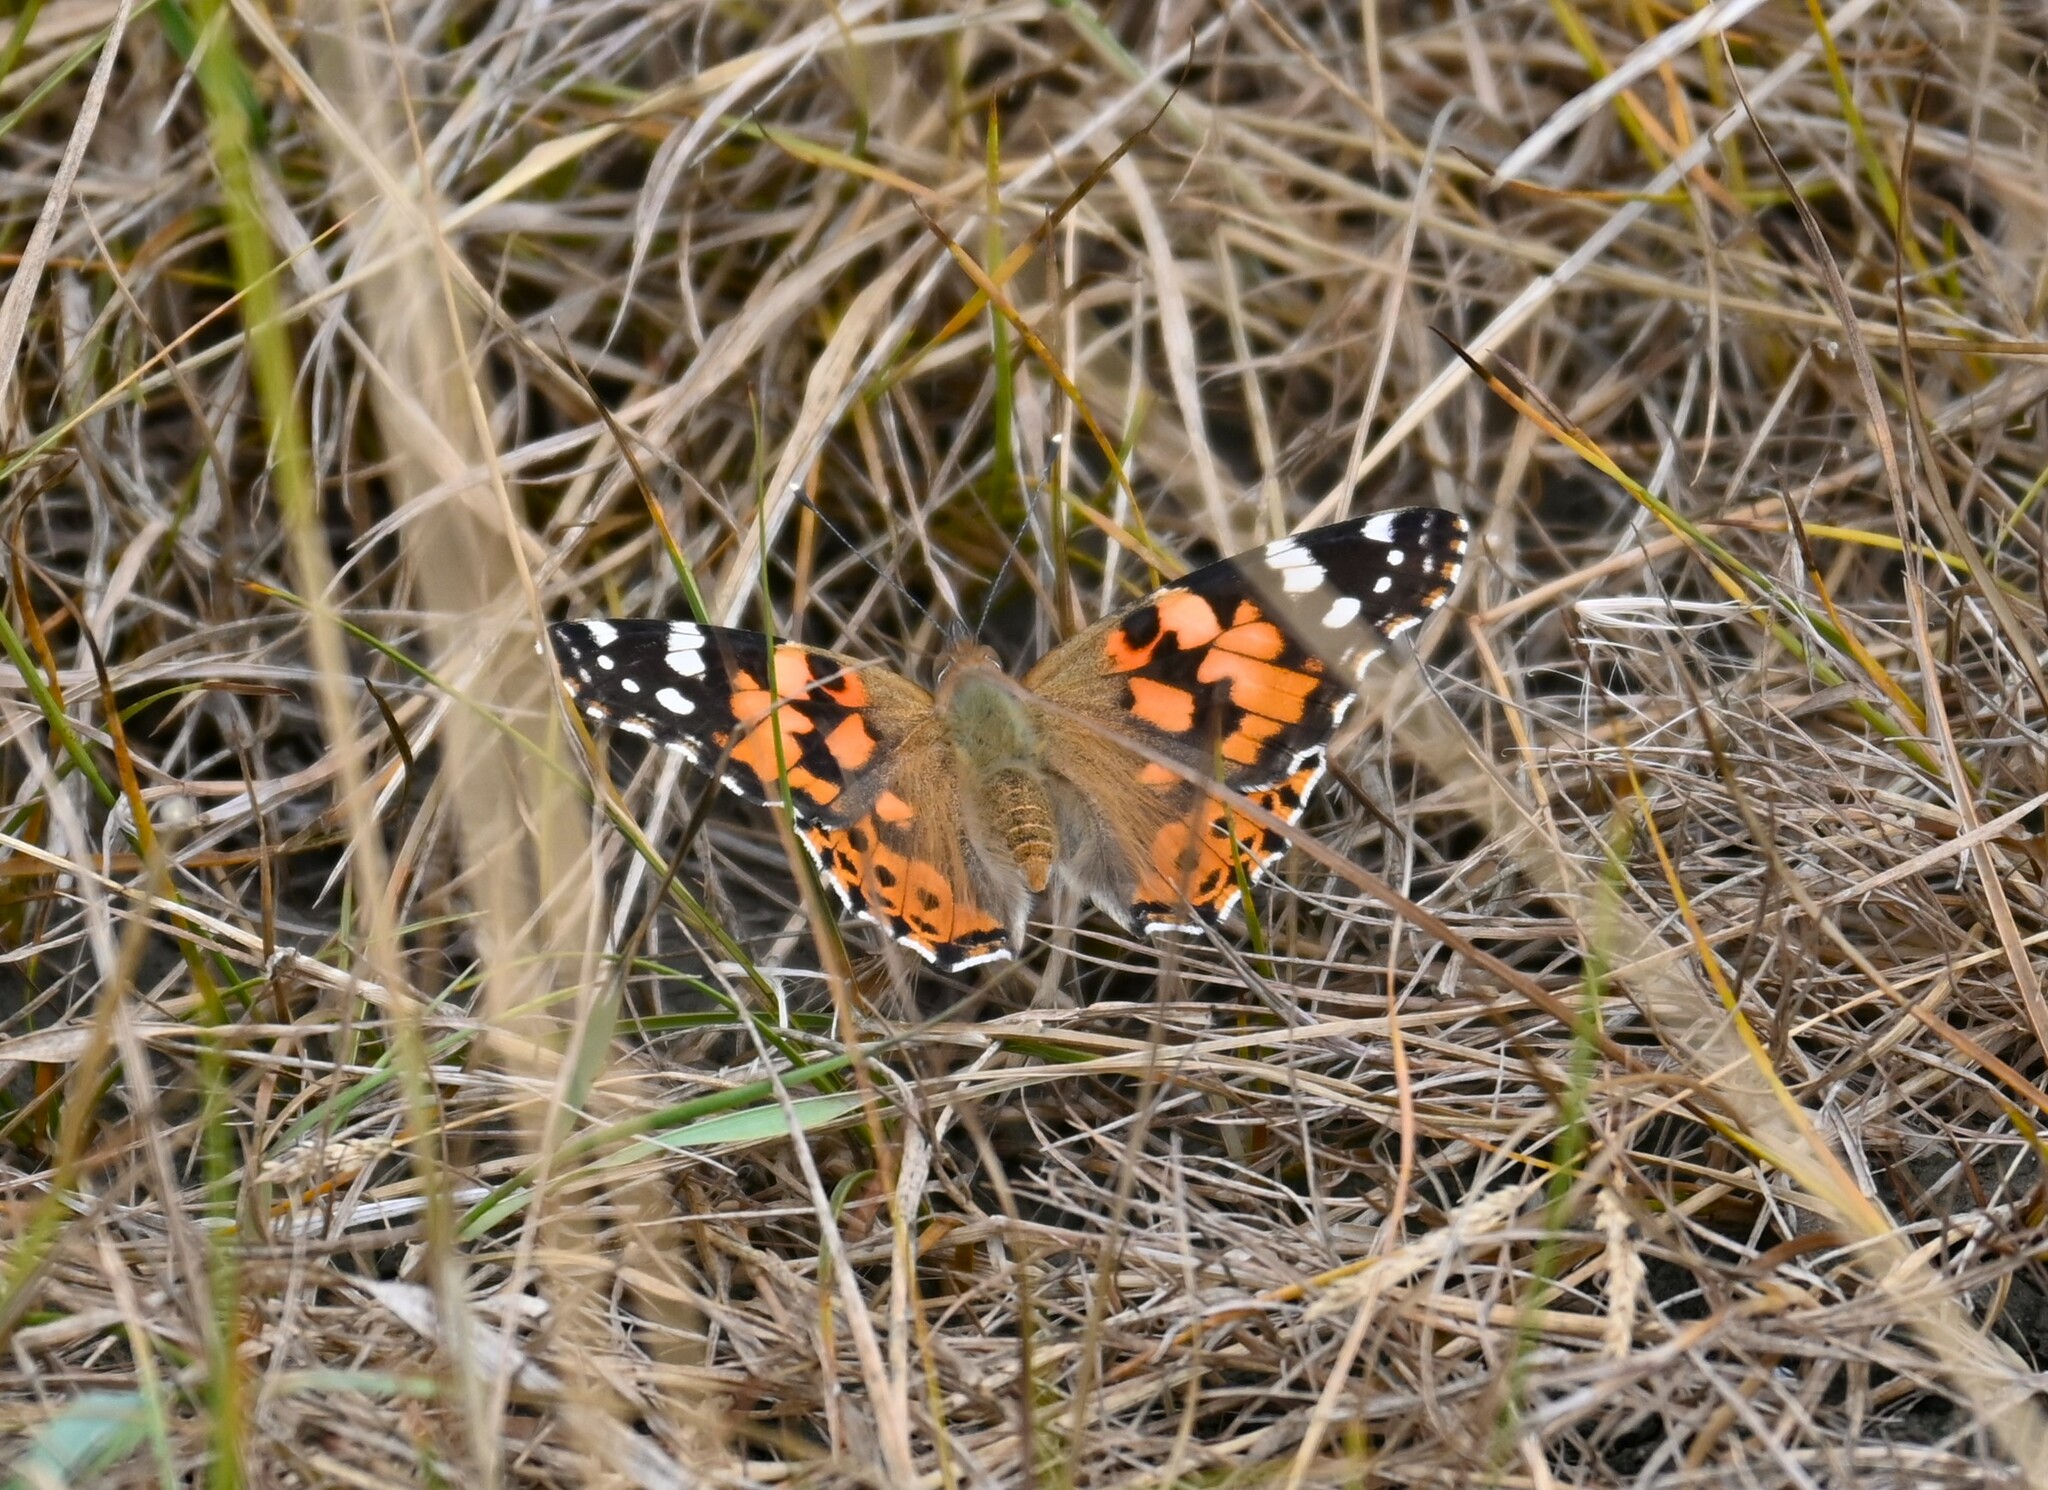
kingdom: Animalia
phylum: Arthropoda
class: Insecta
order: Lepidoptera
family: Nymphalidae
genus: Vanessa
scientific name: Vanessa cardui
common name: Painted lady
